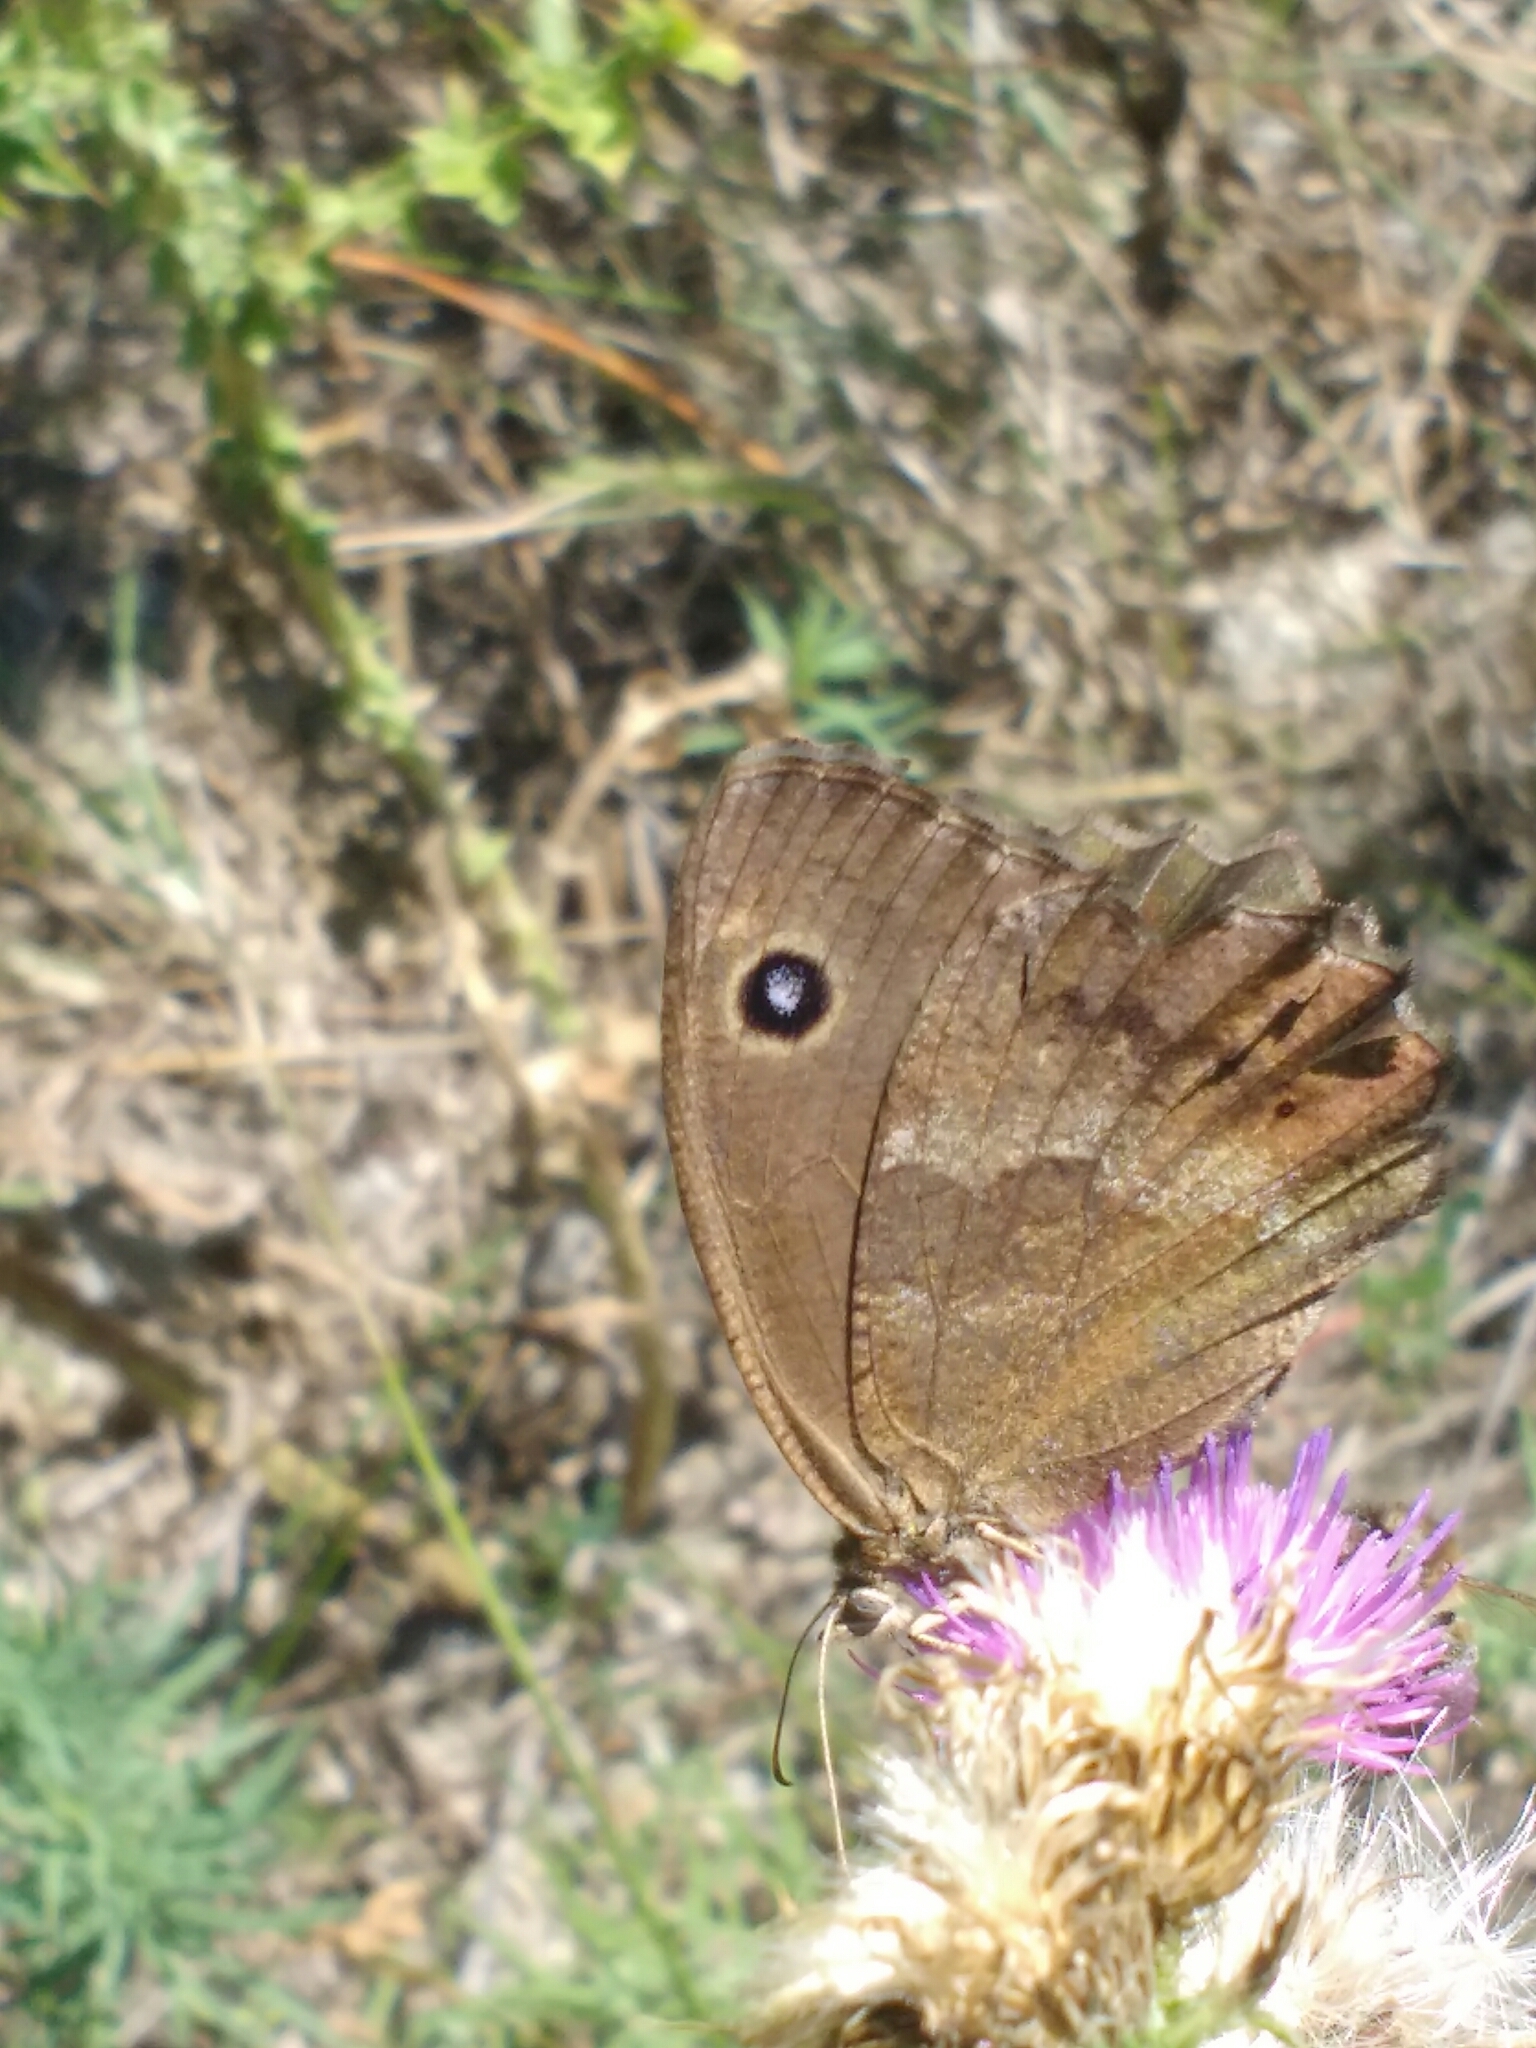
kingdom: Animalia
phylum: Arthropoda
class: Insecta
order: Lepidoptera
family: Nymphalidae
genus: Minois
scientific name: Minois dryas
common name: Dryad
